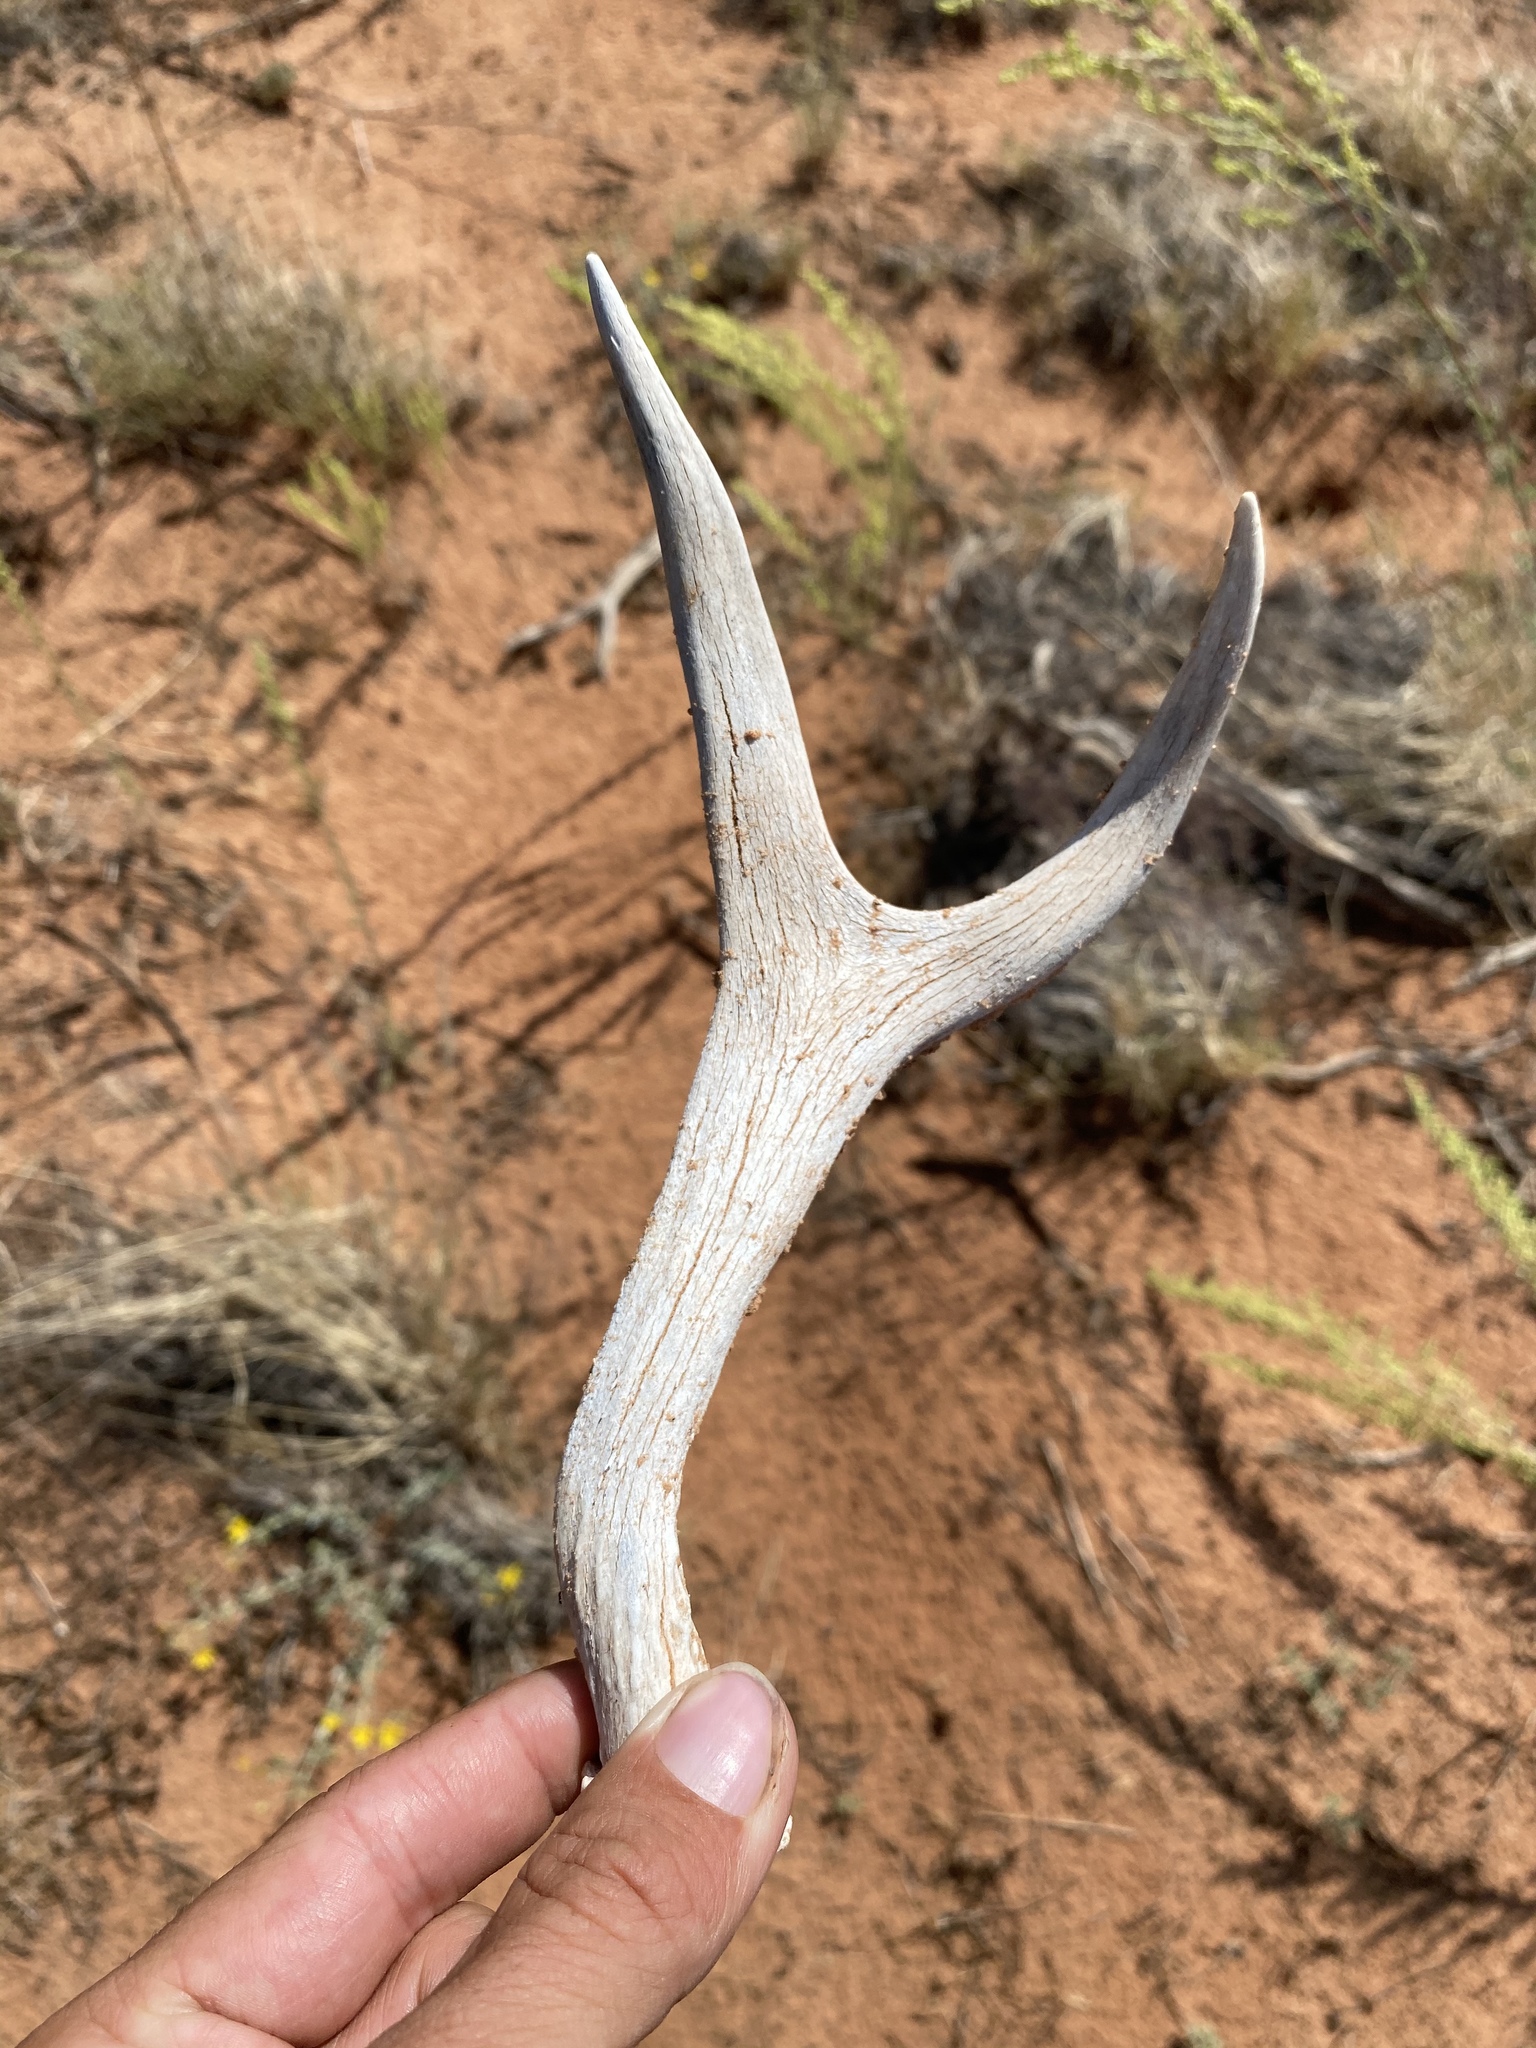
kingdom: Animalia
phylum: Chordata
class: Mammalia
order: Artiodactyla
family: Cervidae
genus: Odocoileus
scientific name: Odocoileus hemionus
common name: Mule deer
